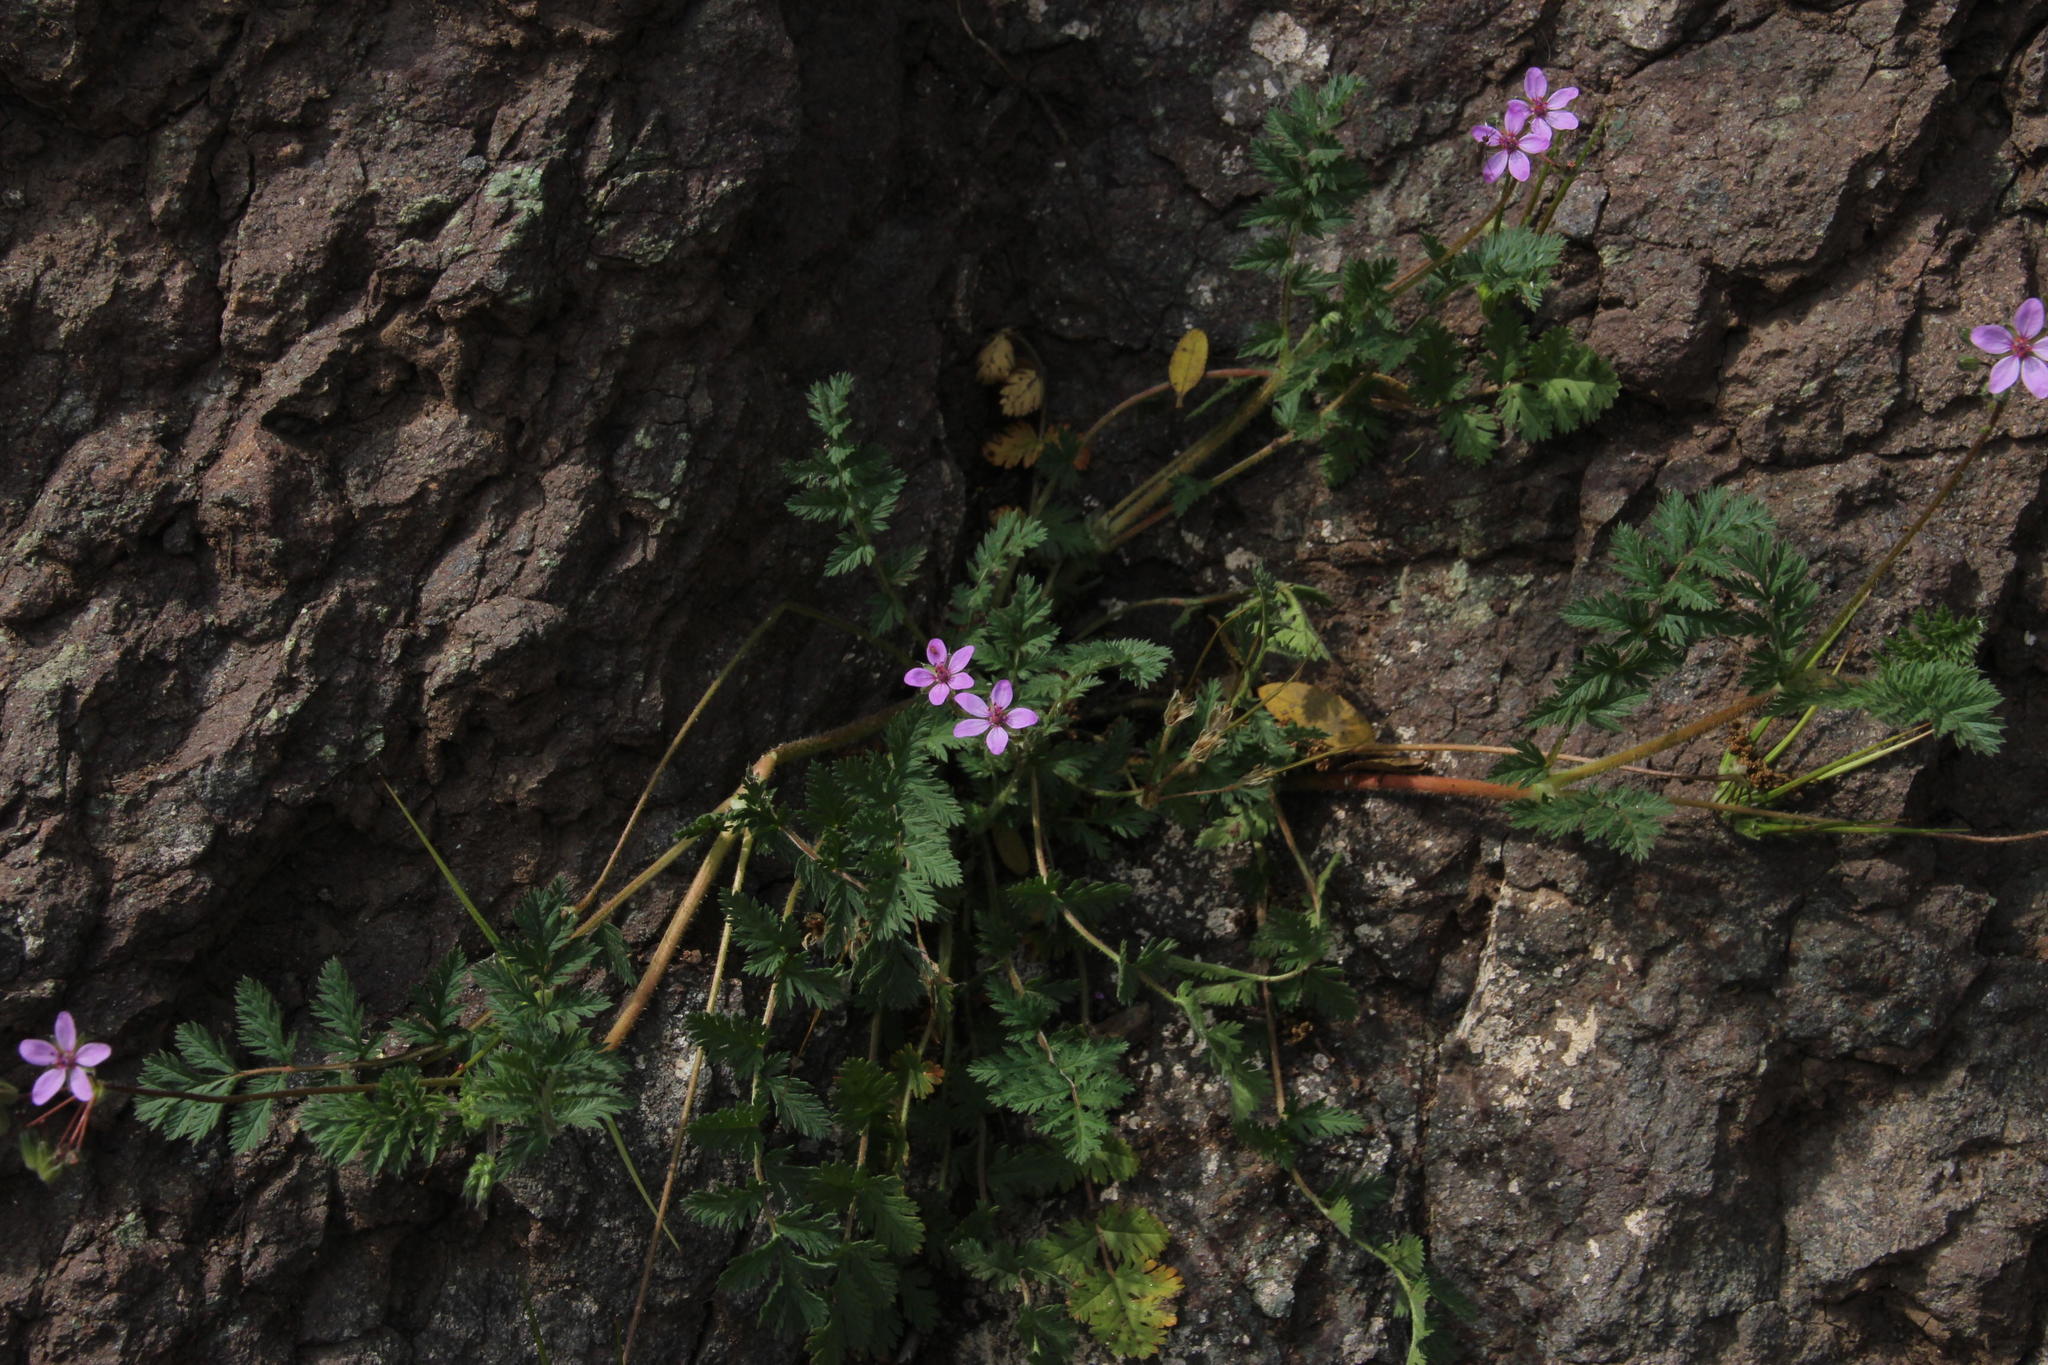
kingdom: Plantae
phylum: Tracheophyta
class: Magnoliopsida
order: Geraniales
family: Geraniaceae
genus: Erodium
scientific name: Erodium cicutarium
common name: Common stork's-bill
